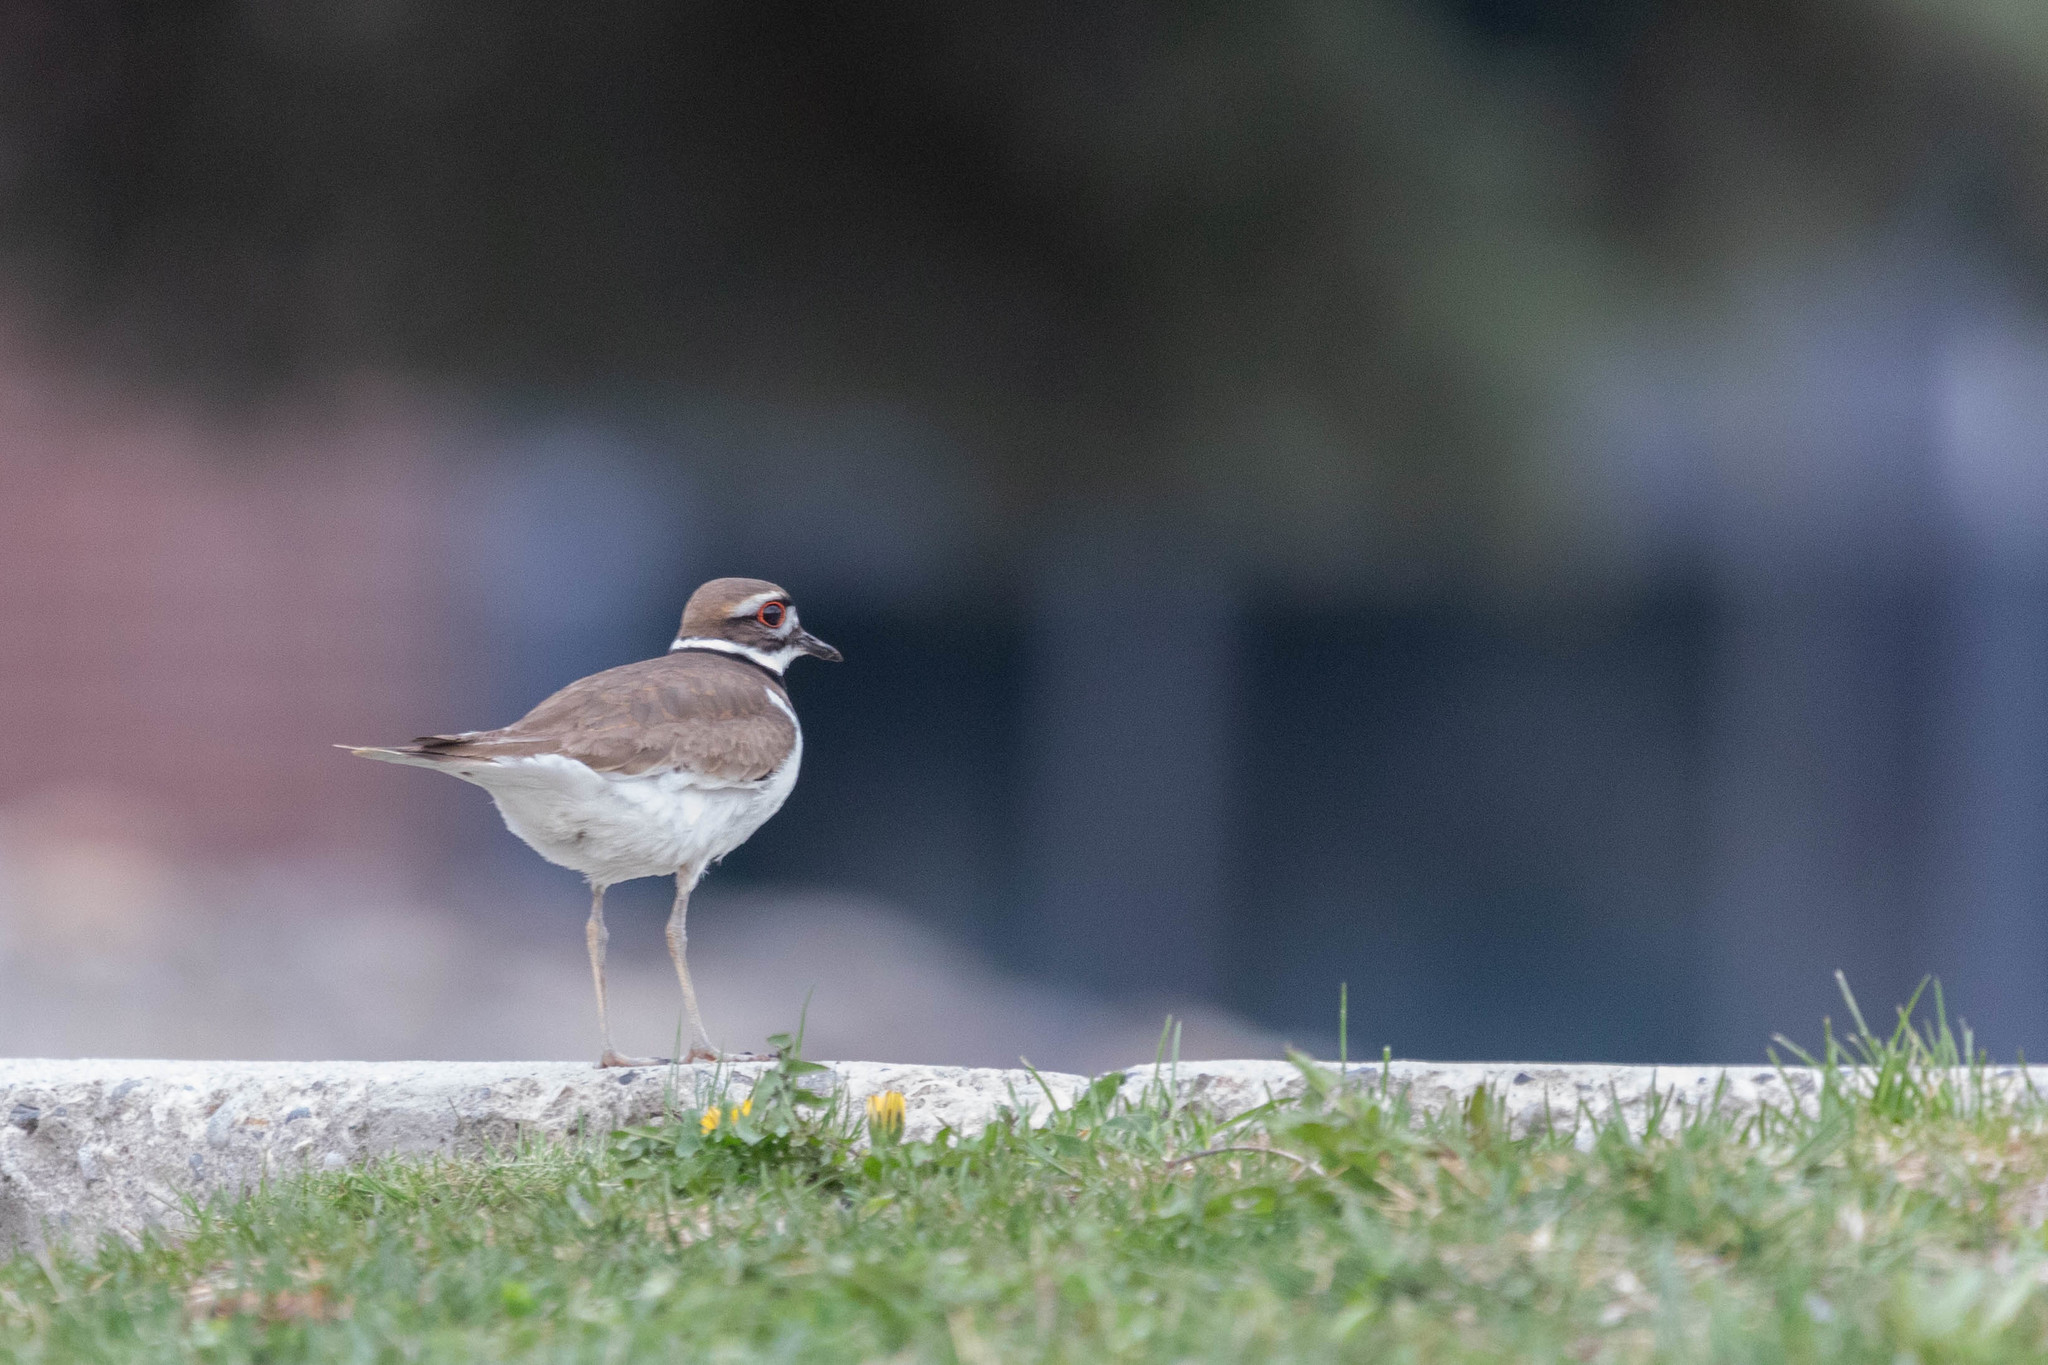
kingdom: Animalia
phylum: Chordata
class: Aves
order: Charadriiformes
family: Charadriidae
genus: Charadrius
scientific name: Charadrius vociferus
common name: Killdeer
